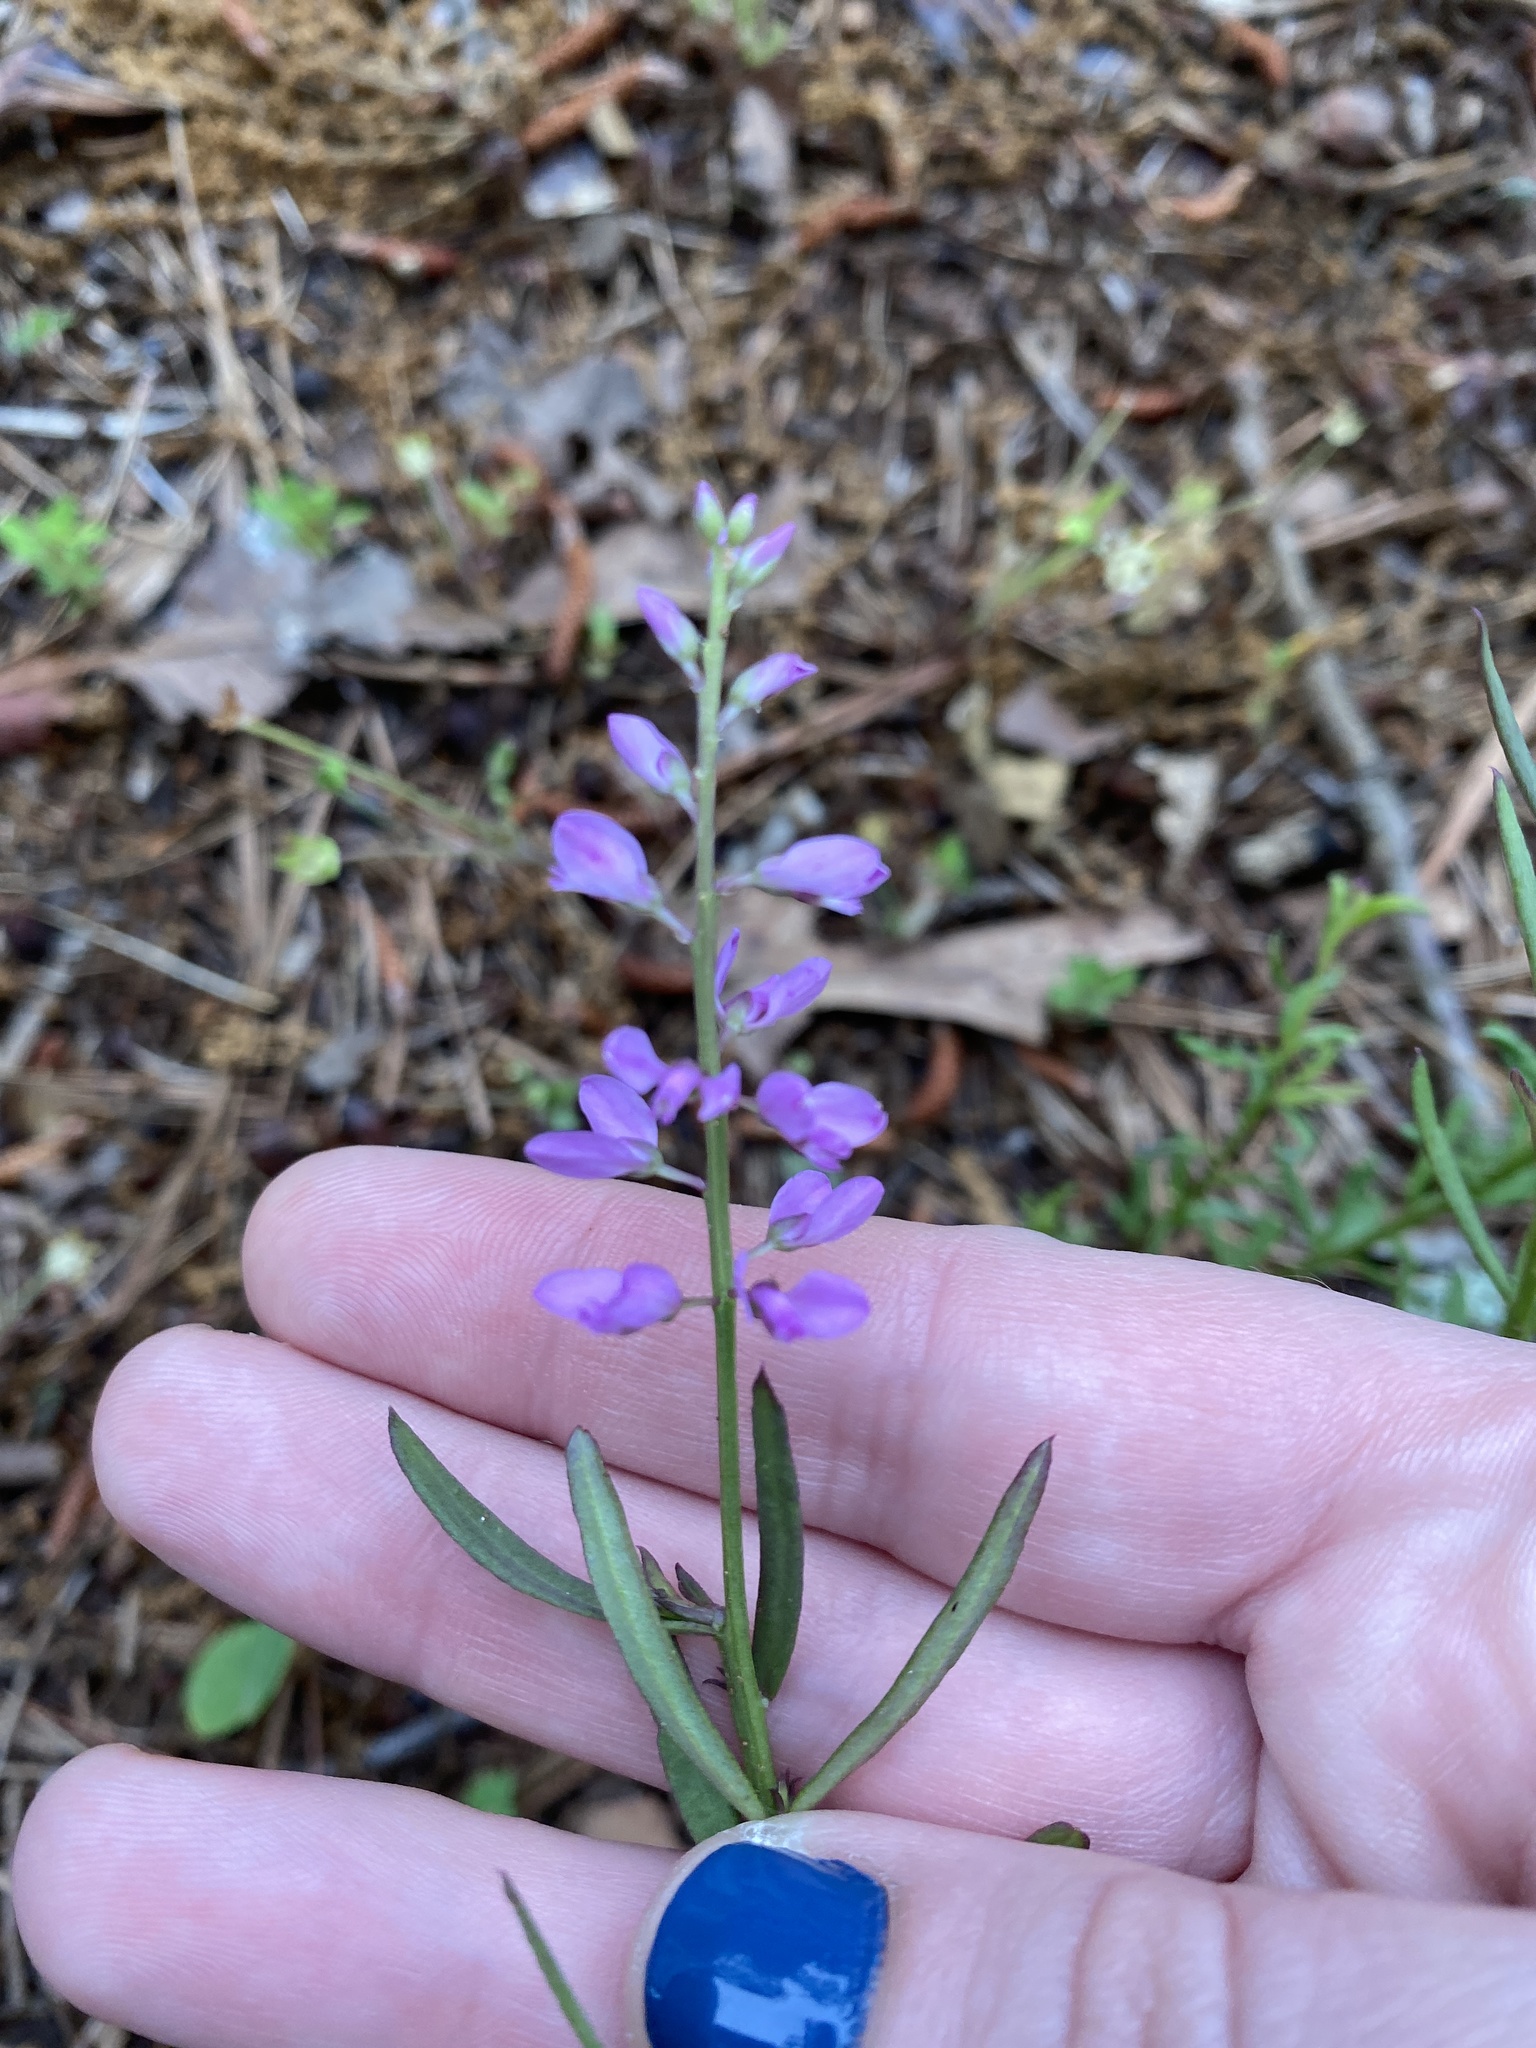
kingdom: Plantae
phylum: Tracheophyta
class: Magnoliopsida
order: Fabales
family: Polygalaceae
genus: Polygala
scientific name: Polygala polygama
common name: Bitter milkwort
